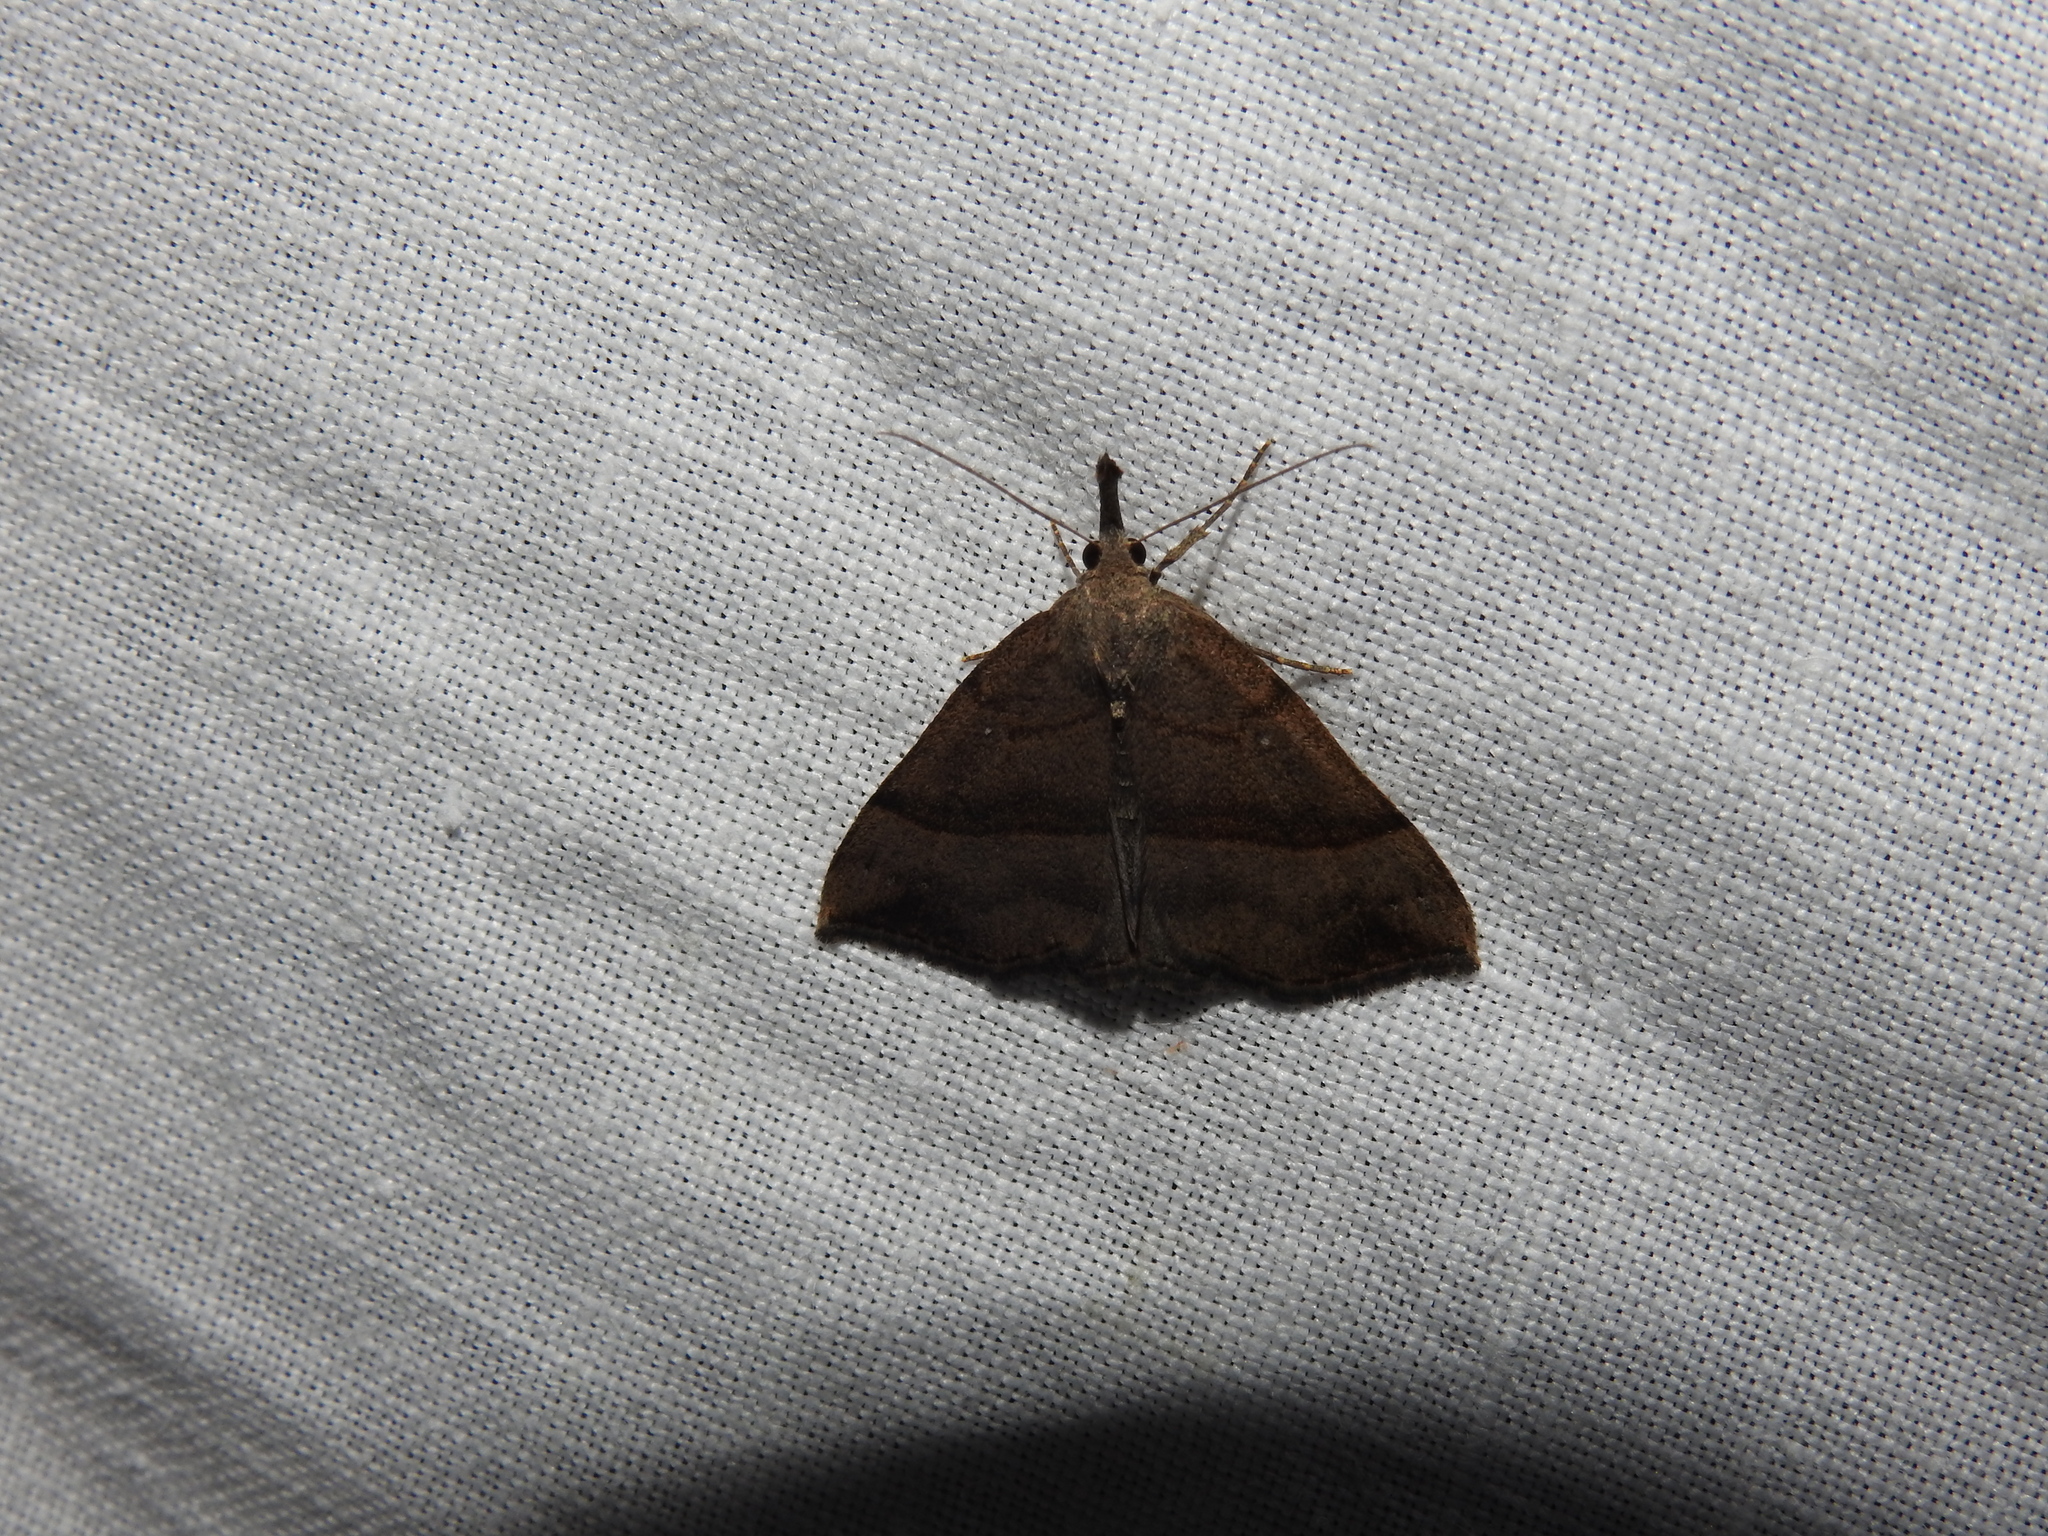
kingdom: Animalia
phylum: Arthropoda
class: Insecta
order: Lepidoptera
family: Erebidae
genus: Hypena
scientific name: Hypena proboscidalis
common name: Snout
